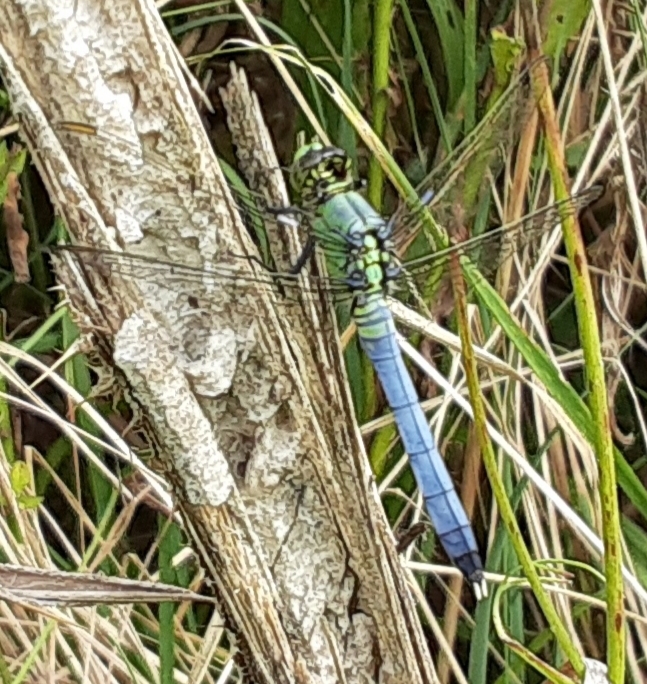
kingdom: Animalia
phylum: Arthropoda
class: Insecta
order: Odonata
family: Libellulidae
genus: Erythemis
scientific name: Erythemis simplicicollis
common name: Eastern pondhawk
